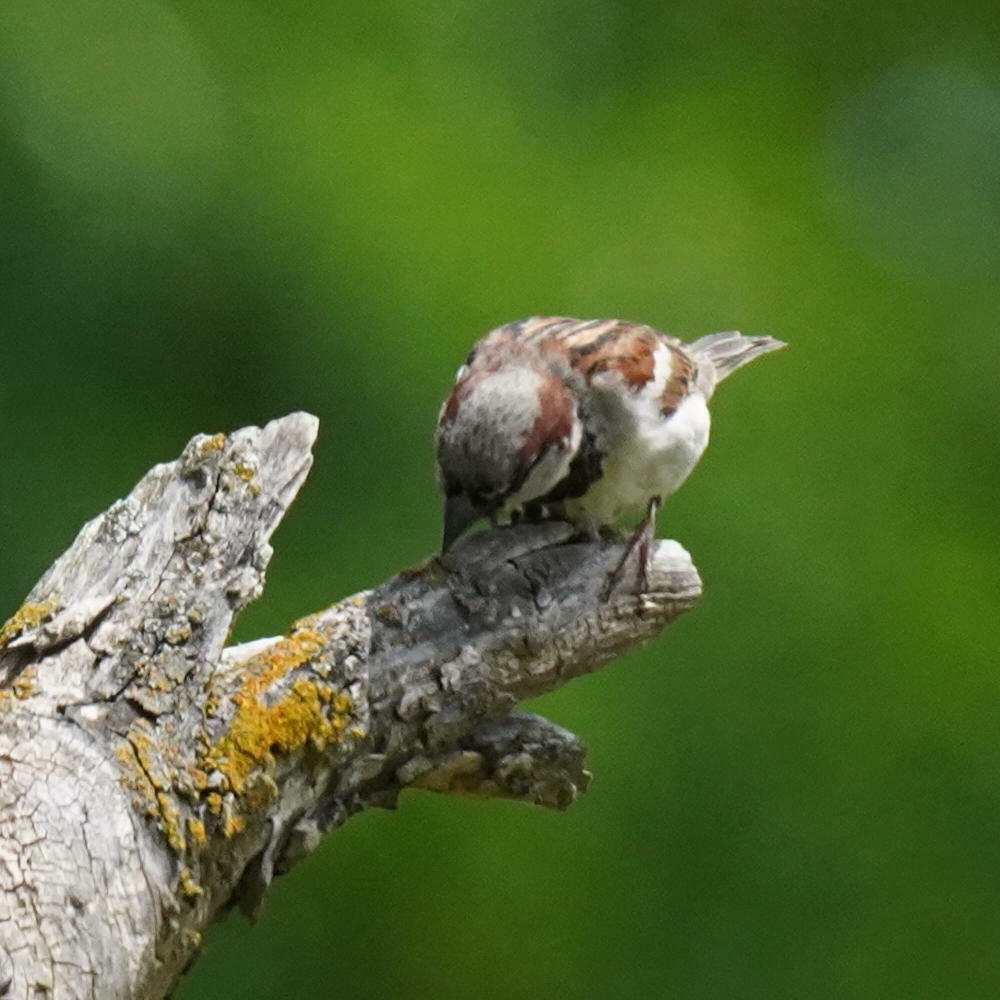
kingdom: Animalia
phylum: Chordata
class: Aves
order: Passeriformes
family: Passeridae
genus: Passer
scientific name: Passer domesticus
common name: House sparrow
